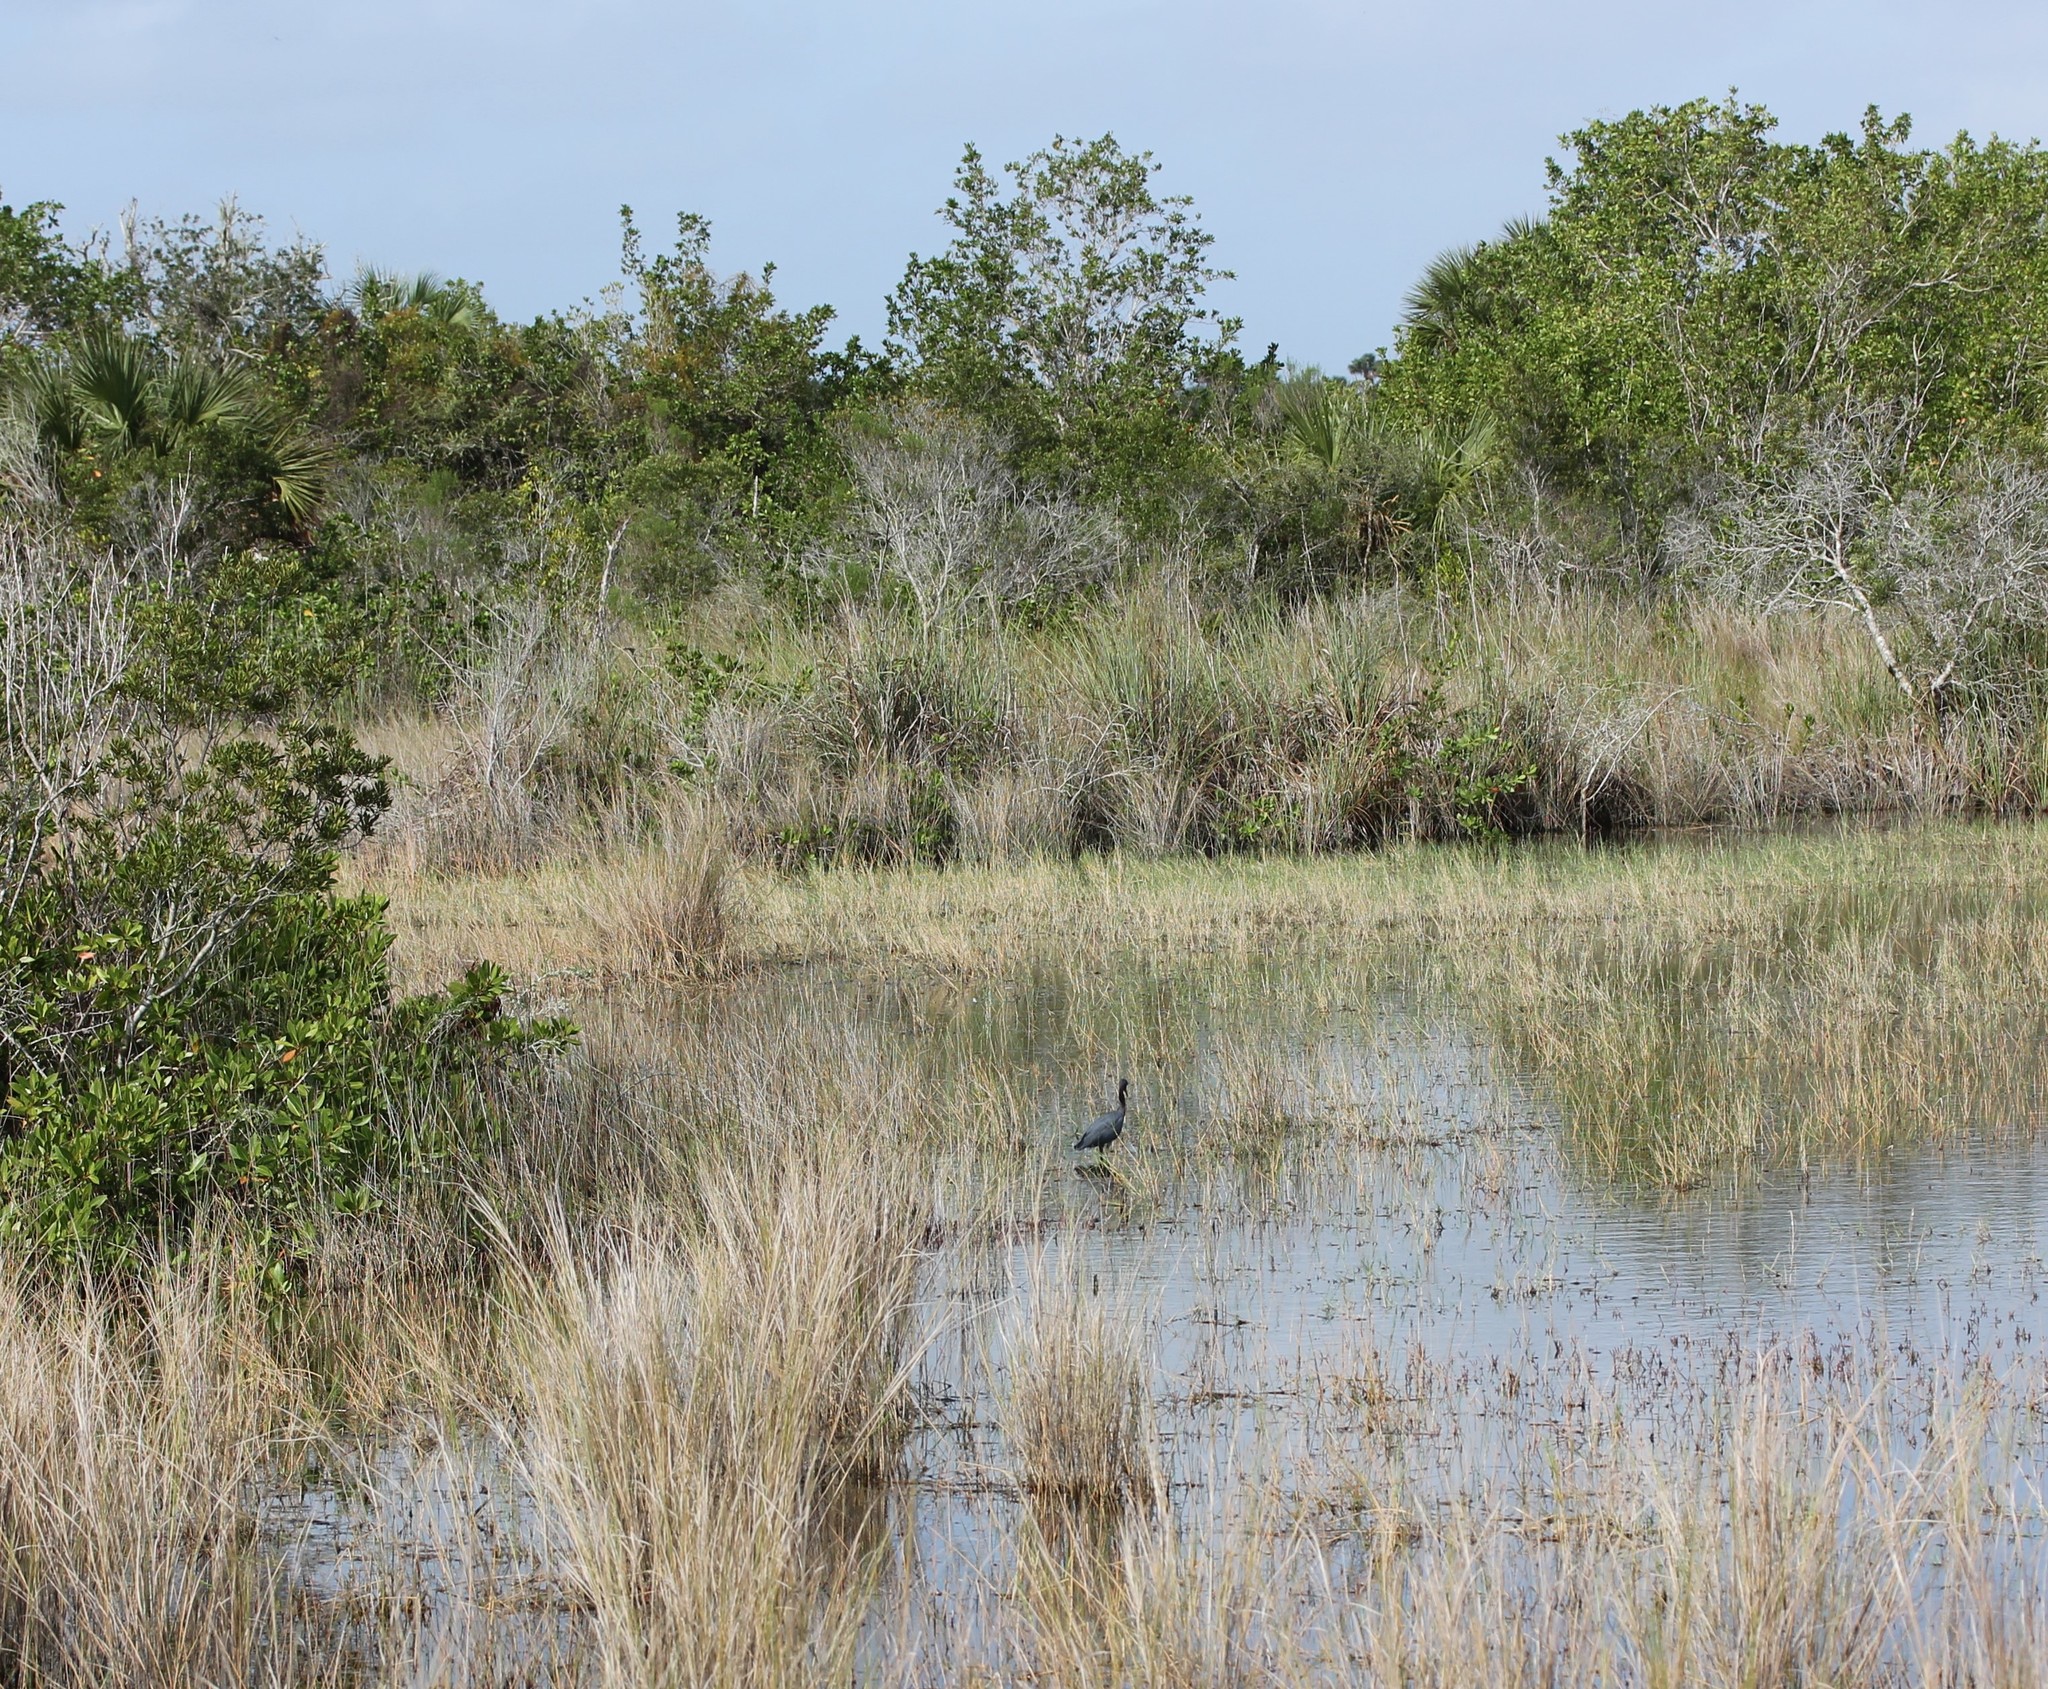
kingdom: Animalia
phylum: Chordata
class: Aves
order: Pelecaniformes
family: Ardeidae
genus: Egretta
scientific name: Egretta caerulea
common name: Little blue heron
